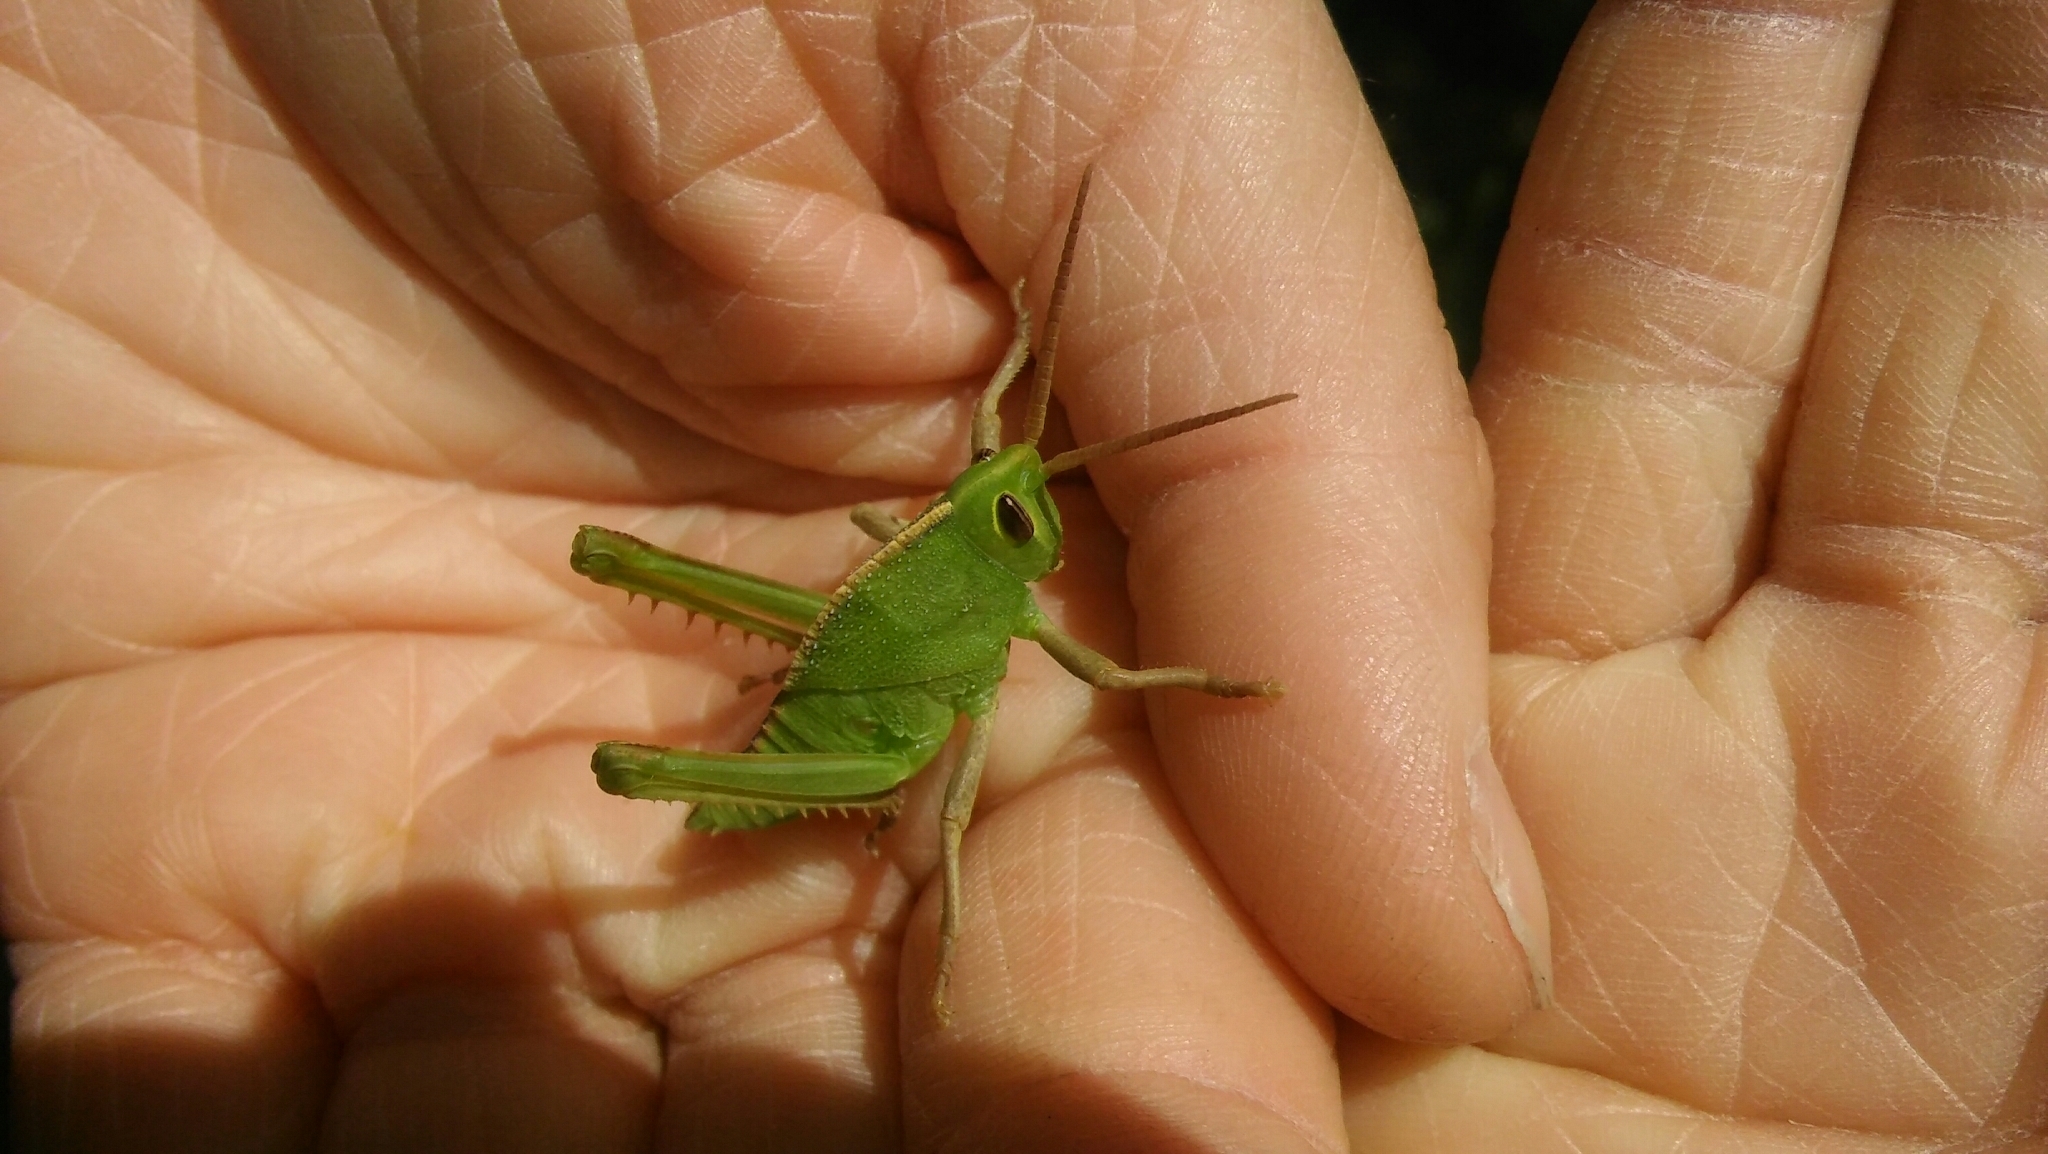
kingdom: Animalia
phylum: Arthropoda
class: Insecta
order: Orthoptera
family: Romaleidae
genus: Staleochlora
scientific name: Staleochlora viridicata
